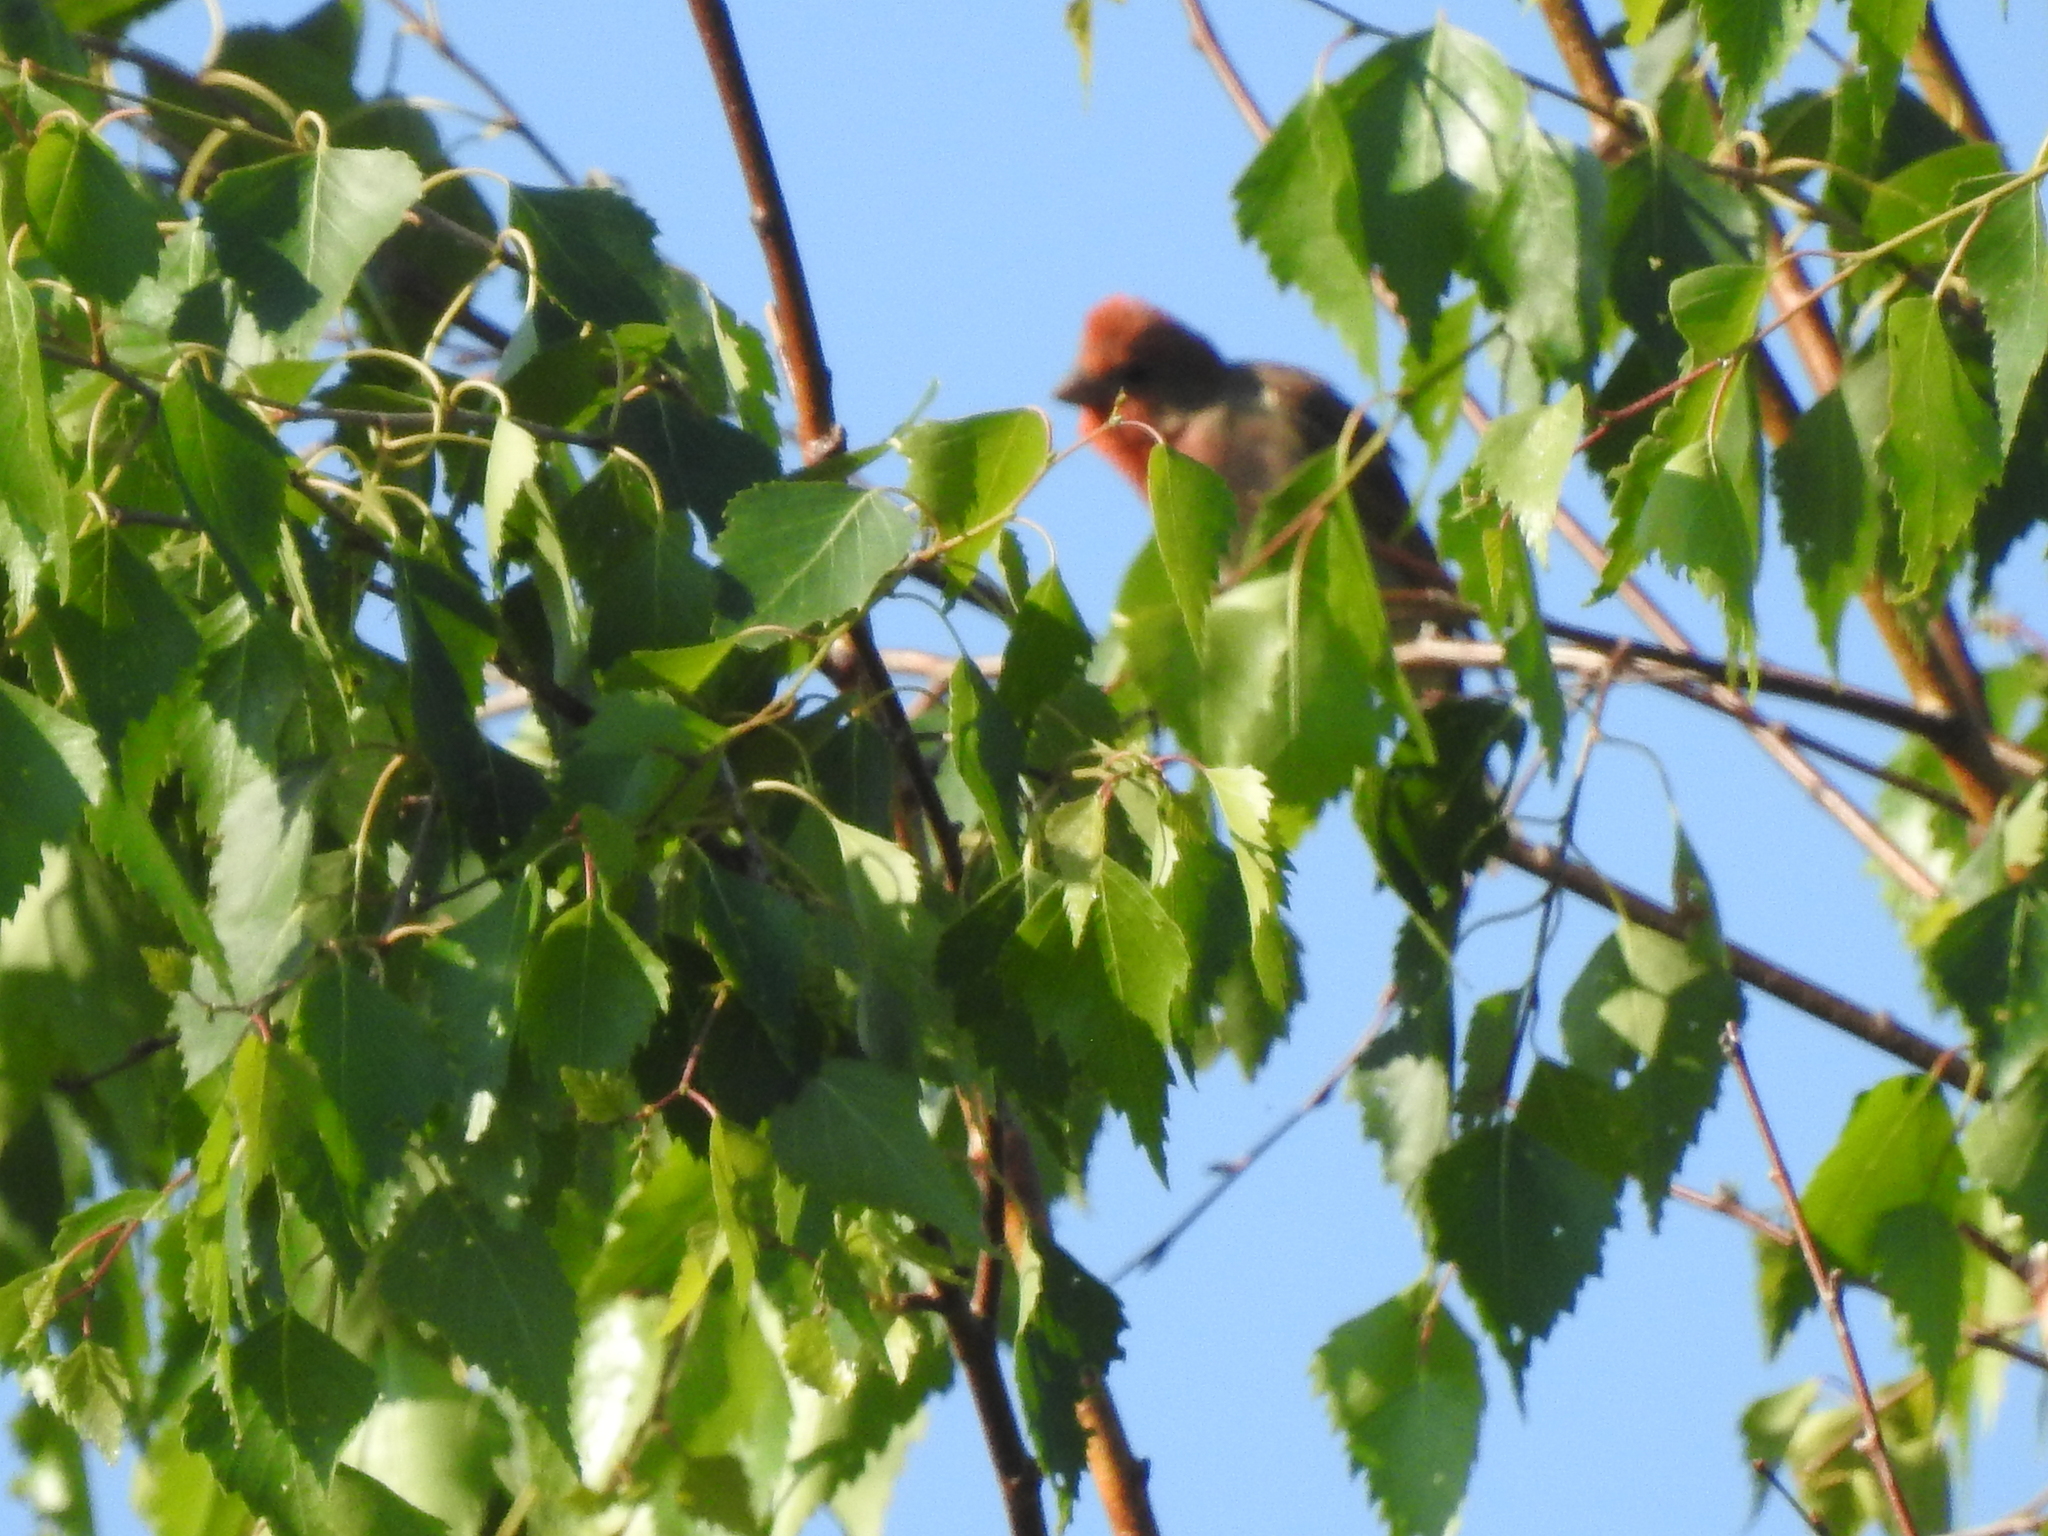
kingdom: Animalia
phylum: Chordata
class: Aves
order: Passeriformes
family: Fringillidae
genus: Carpodacus
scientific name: Carpodacus erythrinus
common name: Common rosefinch
